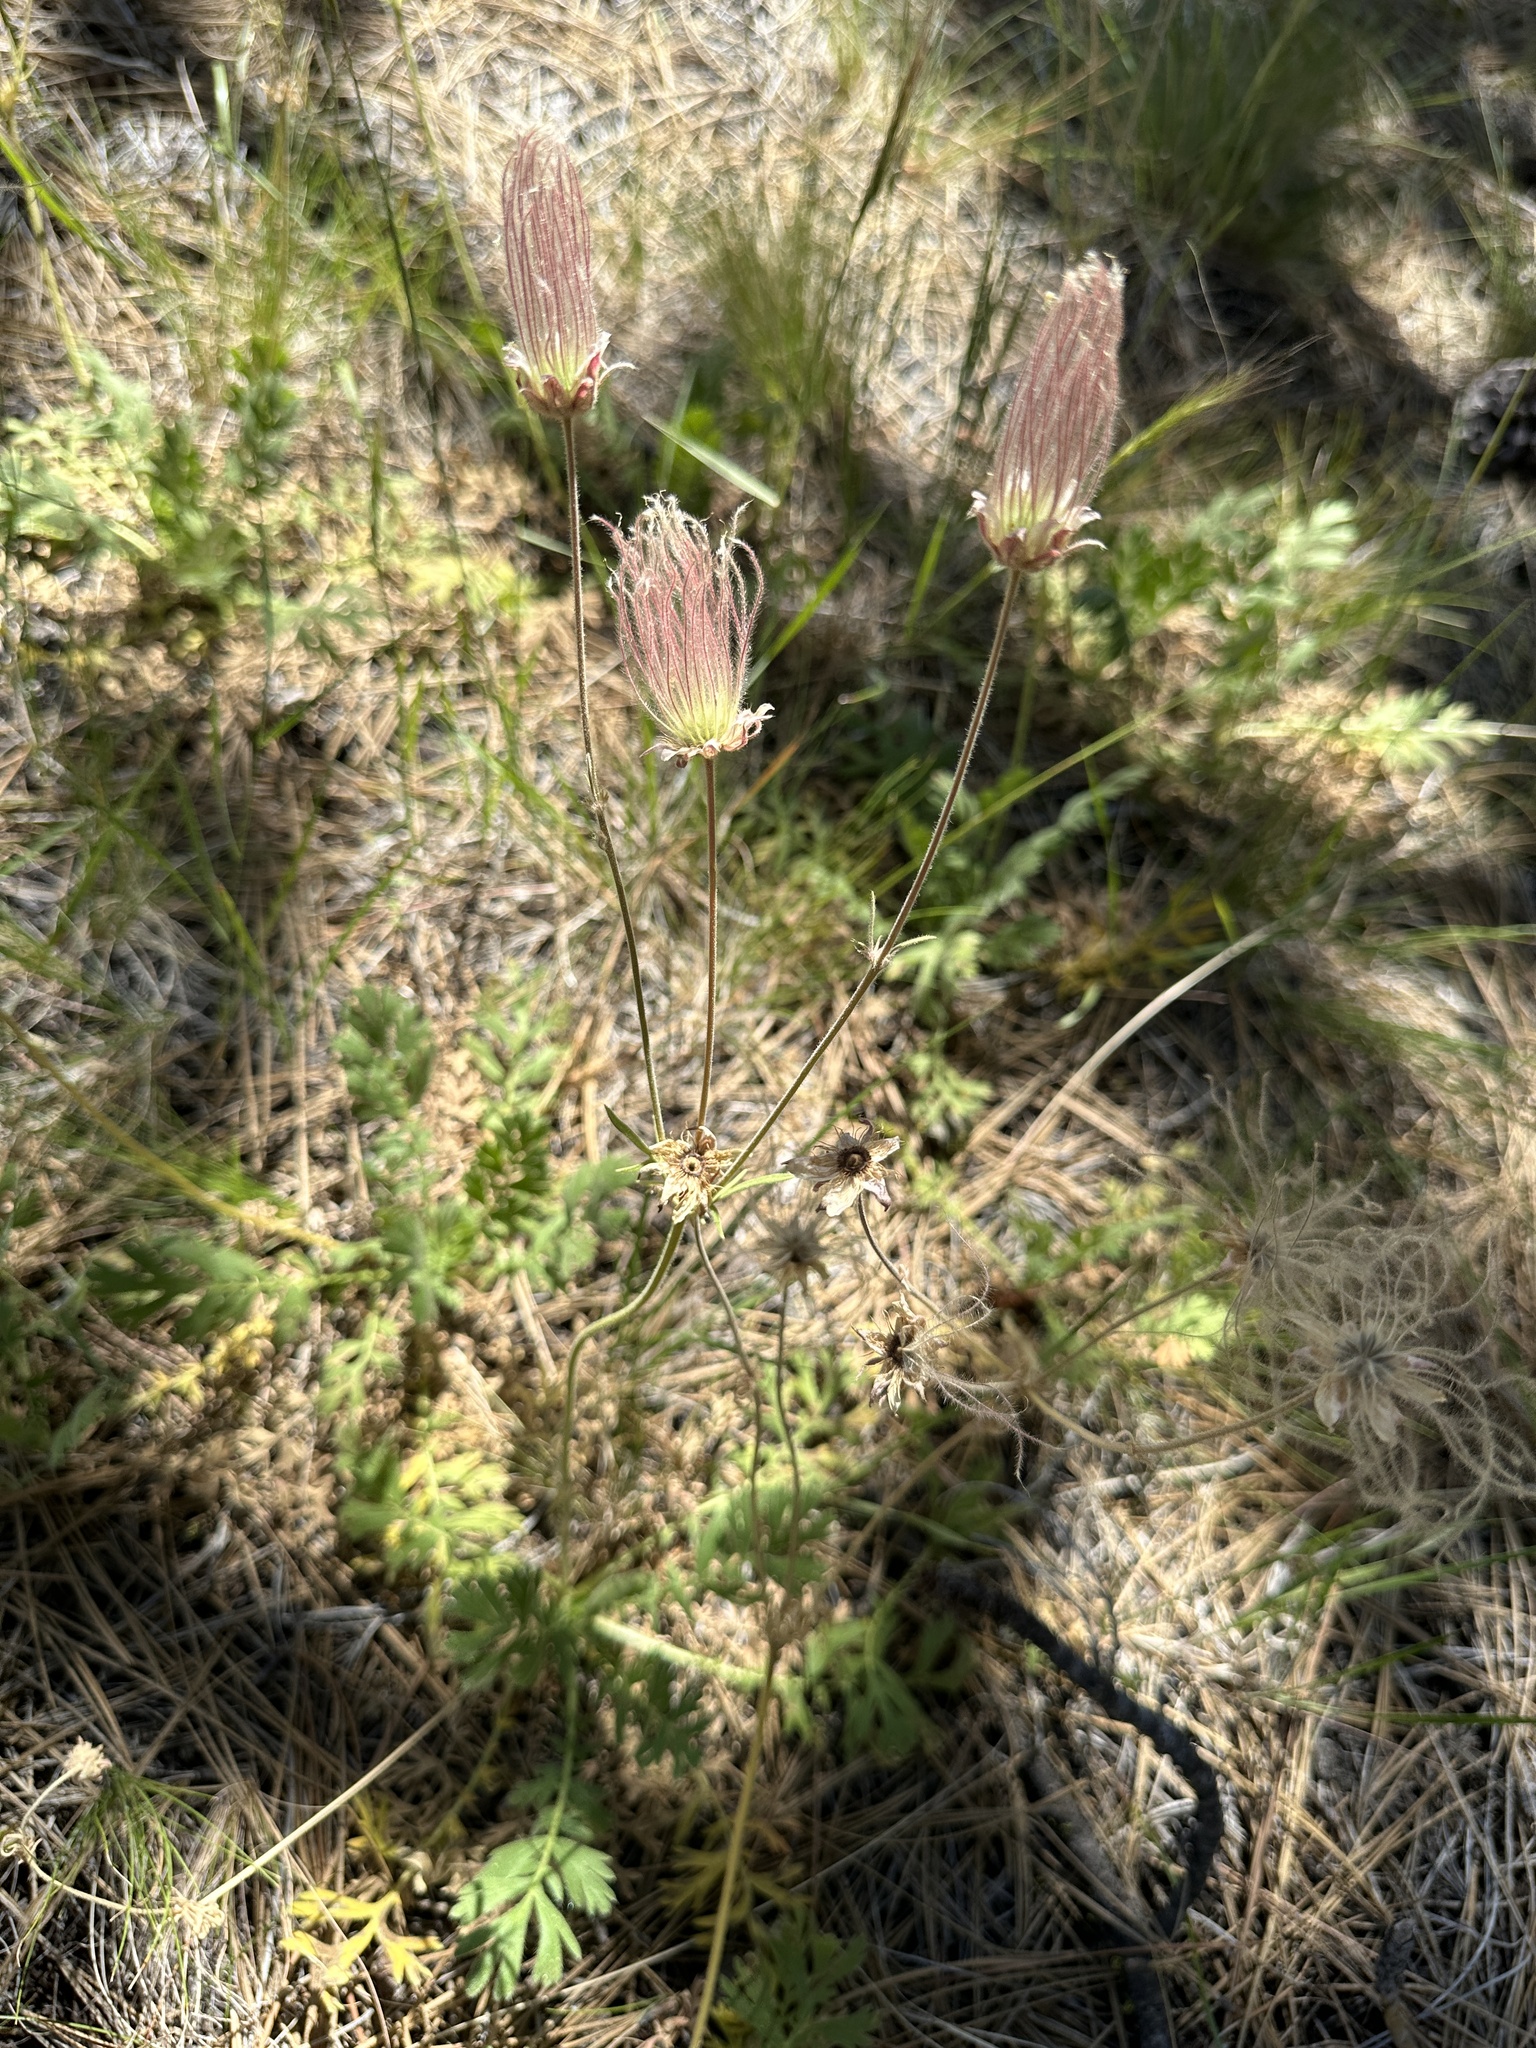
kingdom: Plantae
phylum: Tracheophyta
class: Magnoliopsida
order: Rosales
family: Rosaceae
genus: Geum
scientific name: Geum triflorum
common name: Old man's whiskers
